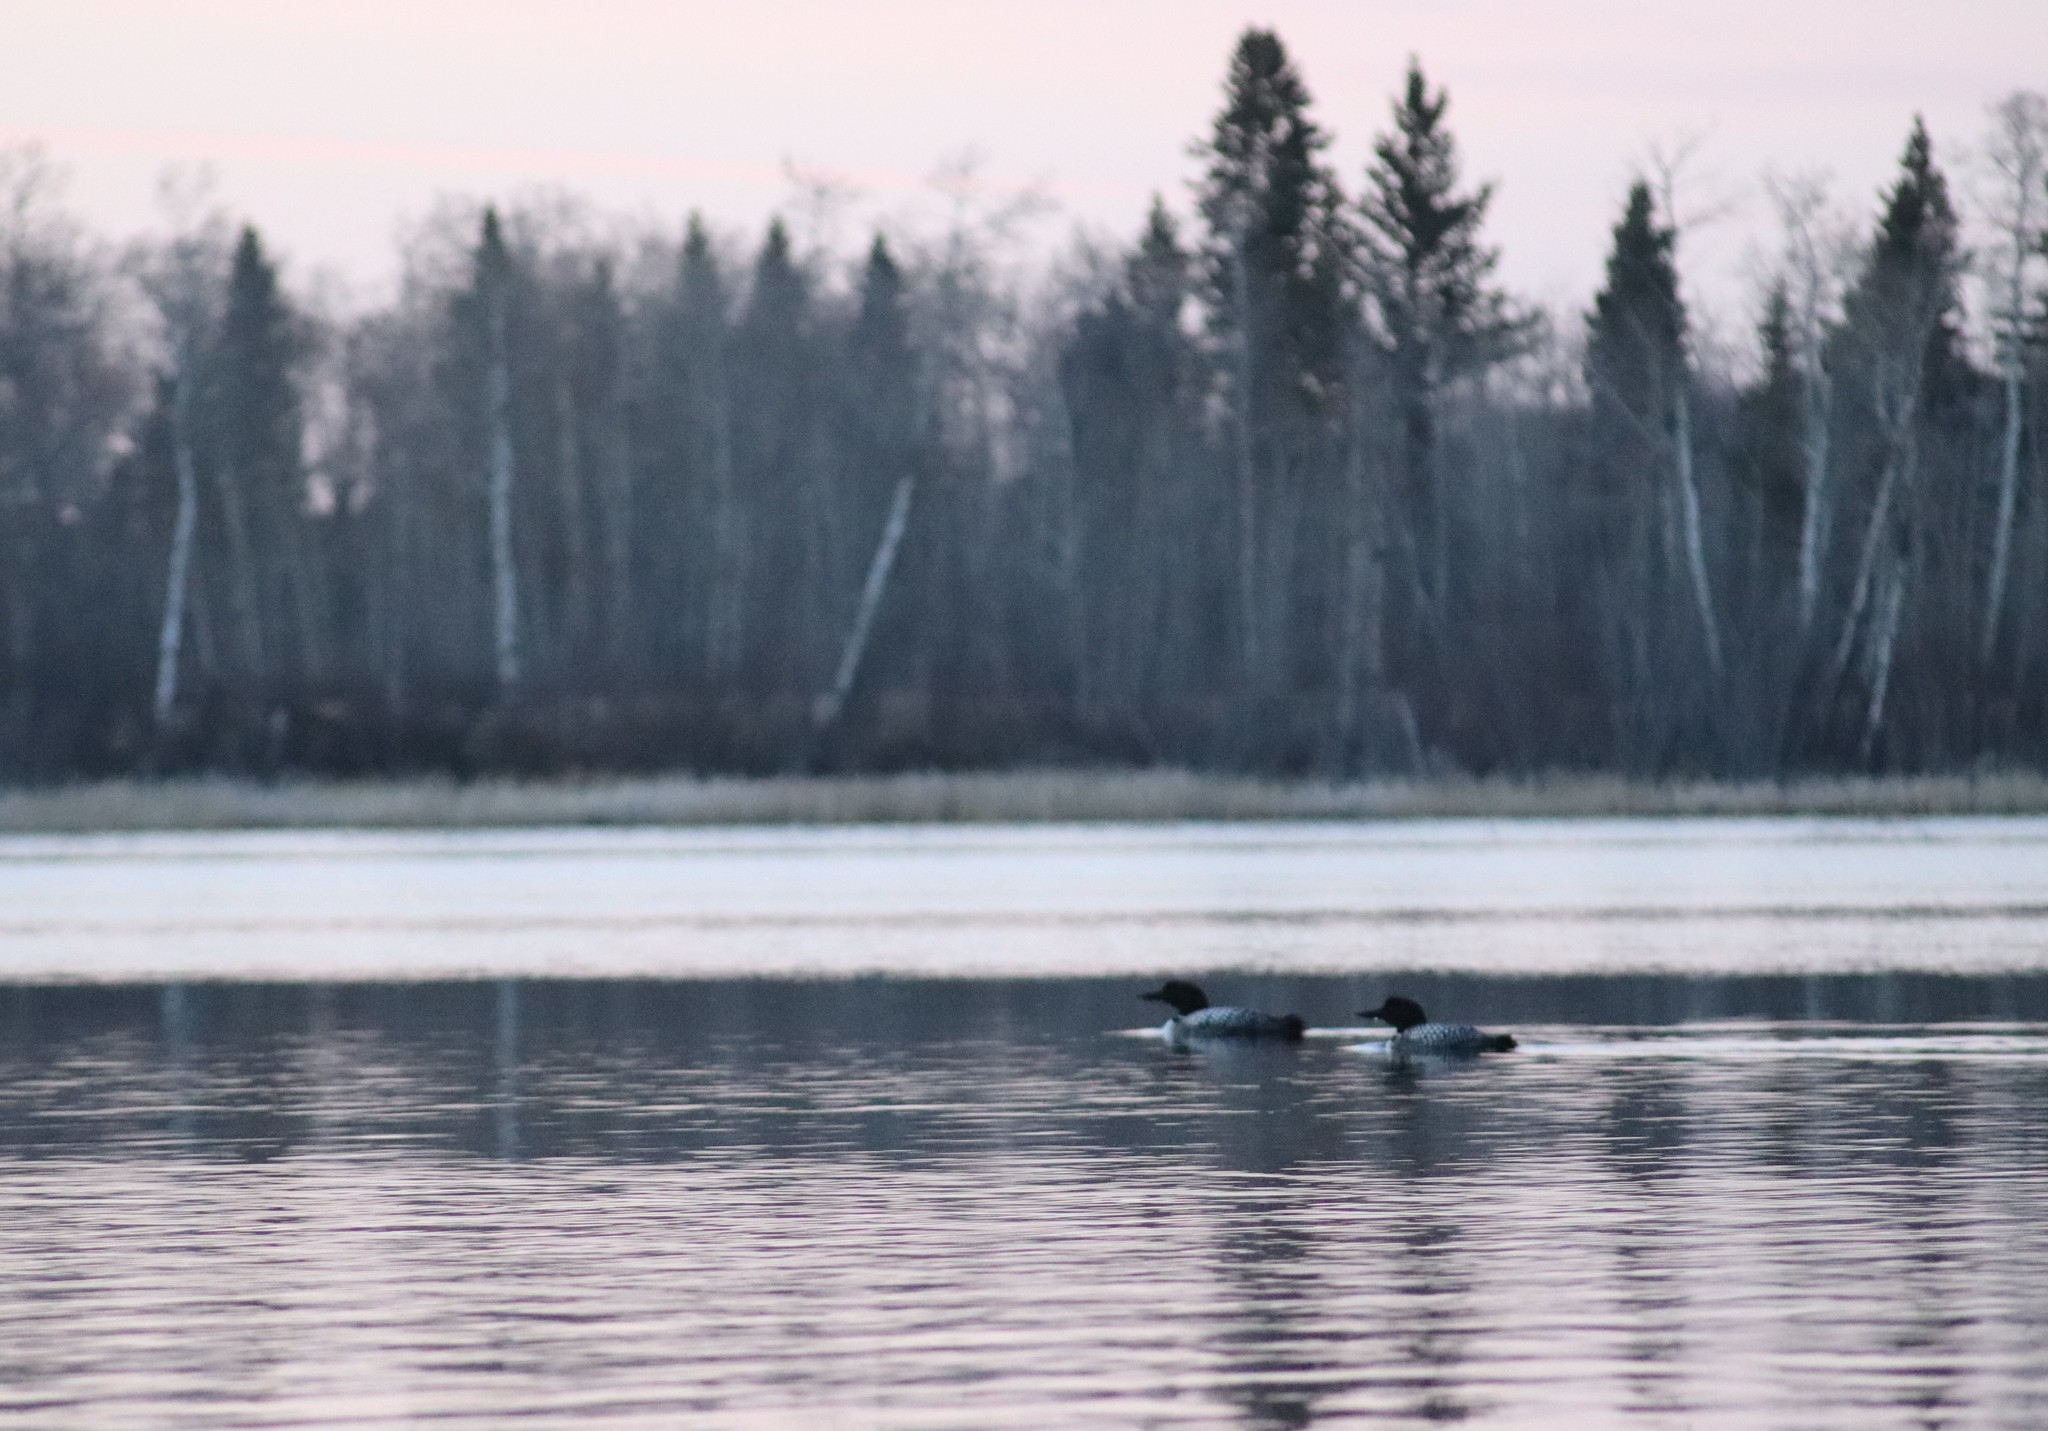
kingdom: Animalia
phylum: Chordata
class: Aves
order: Gaviiformes
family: Gaviidae
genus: Gavia
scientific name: Gavia immer
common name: Common loon
